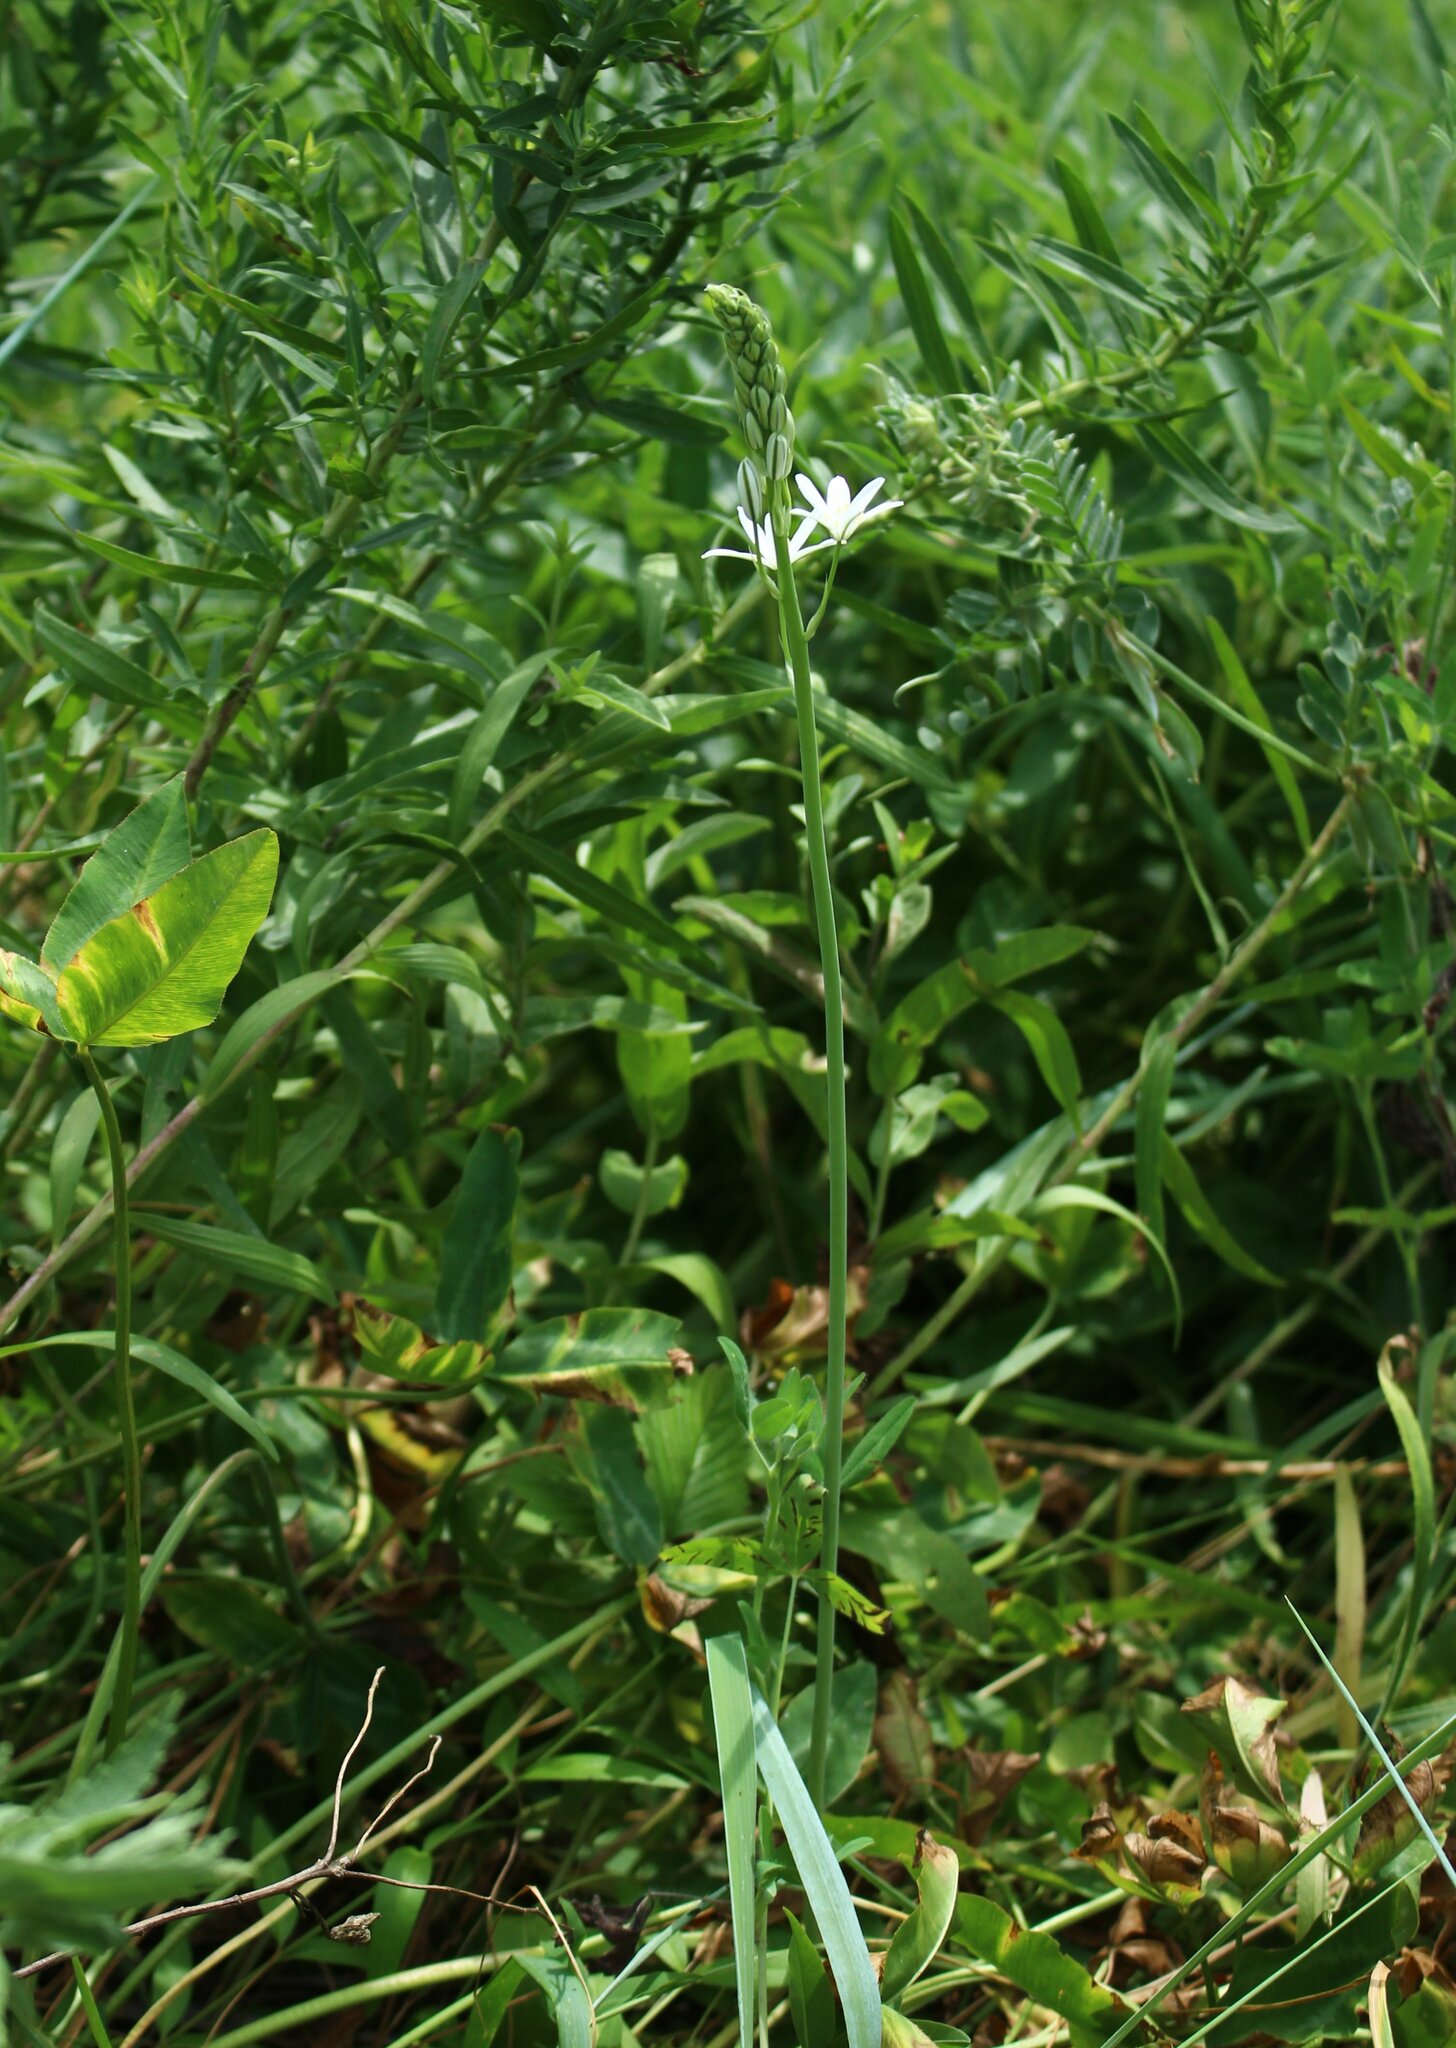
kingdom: Plantae
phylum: Tracheophyta
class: Liliopsida
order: Asparagales
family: Asparagaceae
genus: Ornithogalum
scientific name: Ornithogalum ponticum
